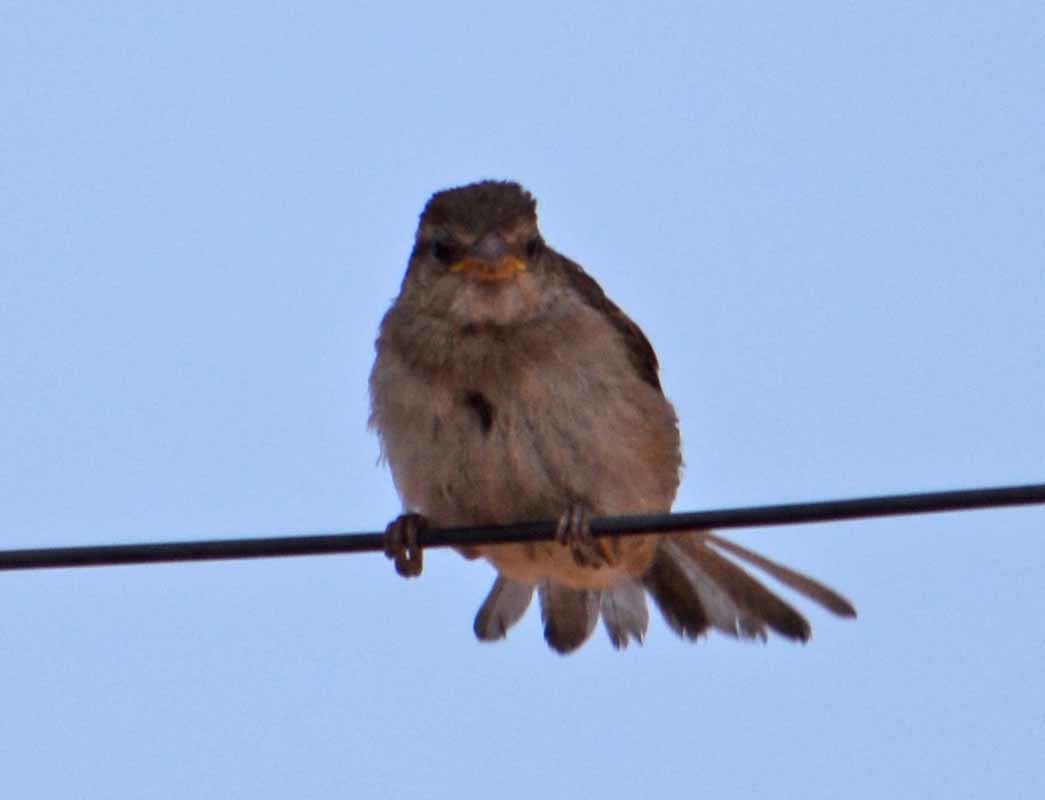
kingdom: Animalia
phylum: Chordata
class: Aves
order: Passeriformes
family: Passeridae
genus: Passer
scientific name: Passer domesticus
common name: House sparrow
